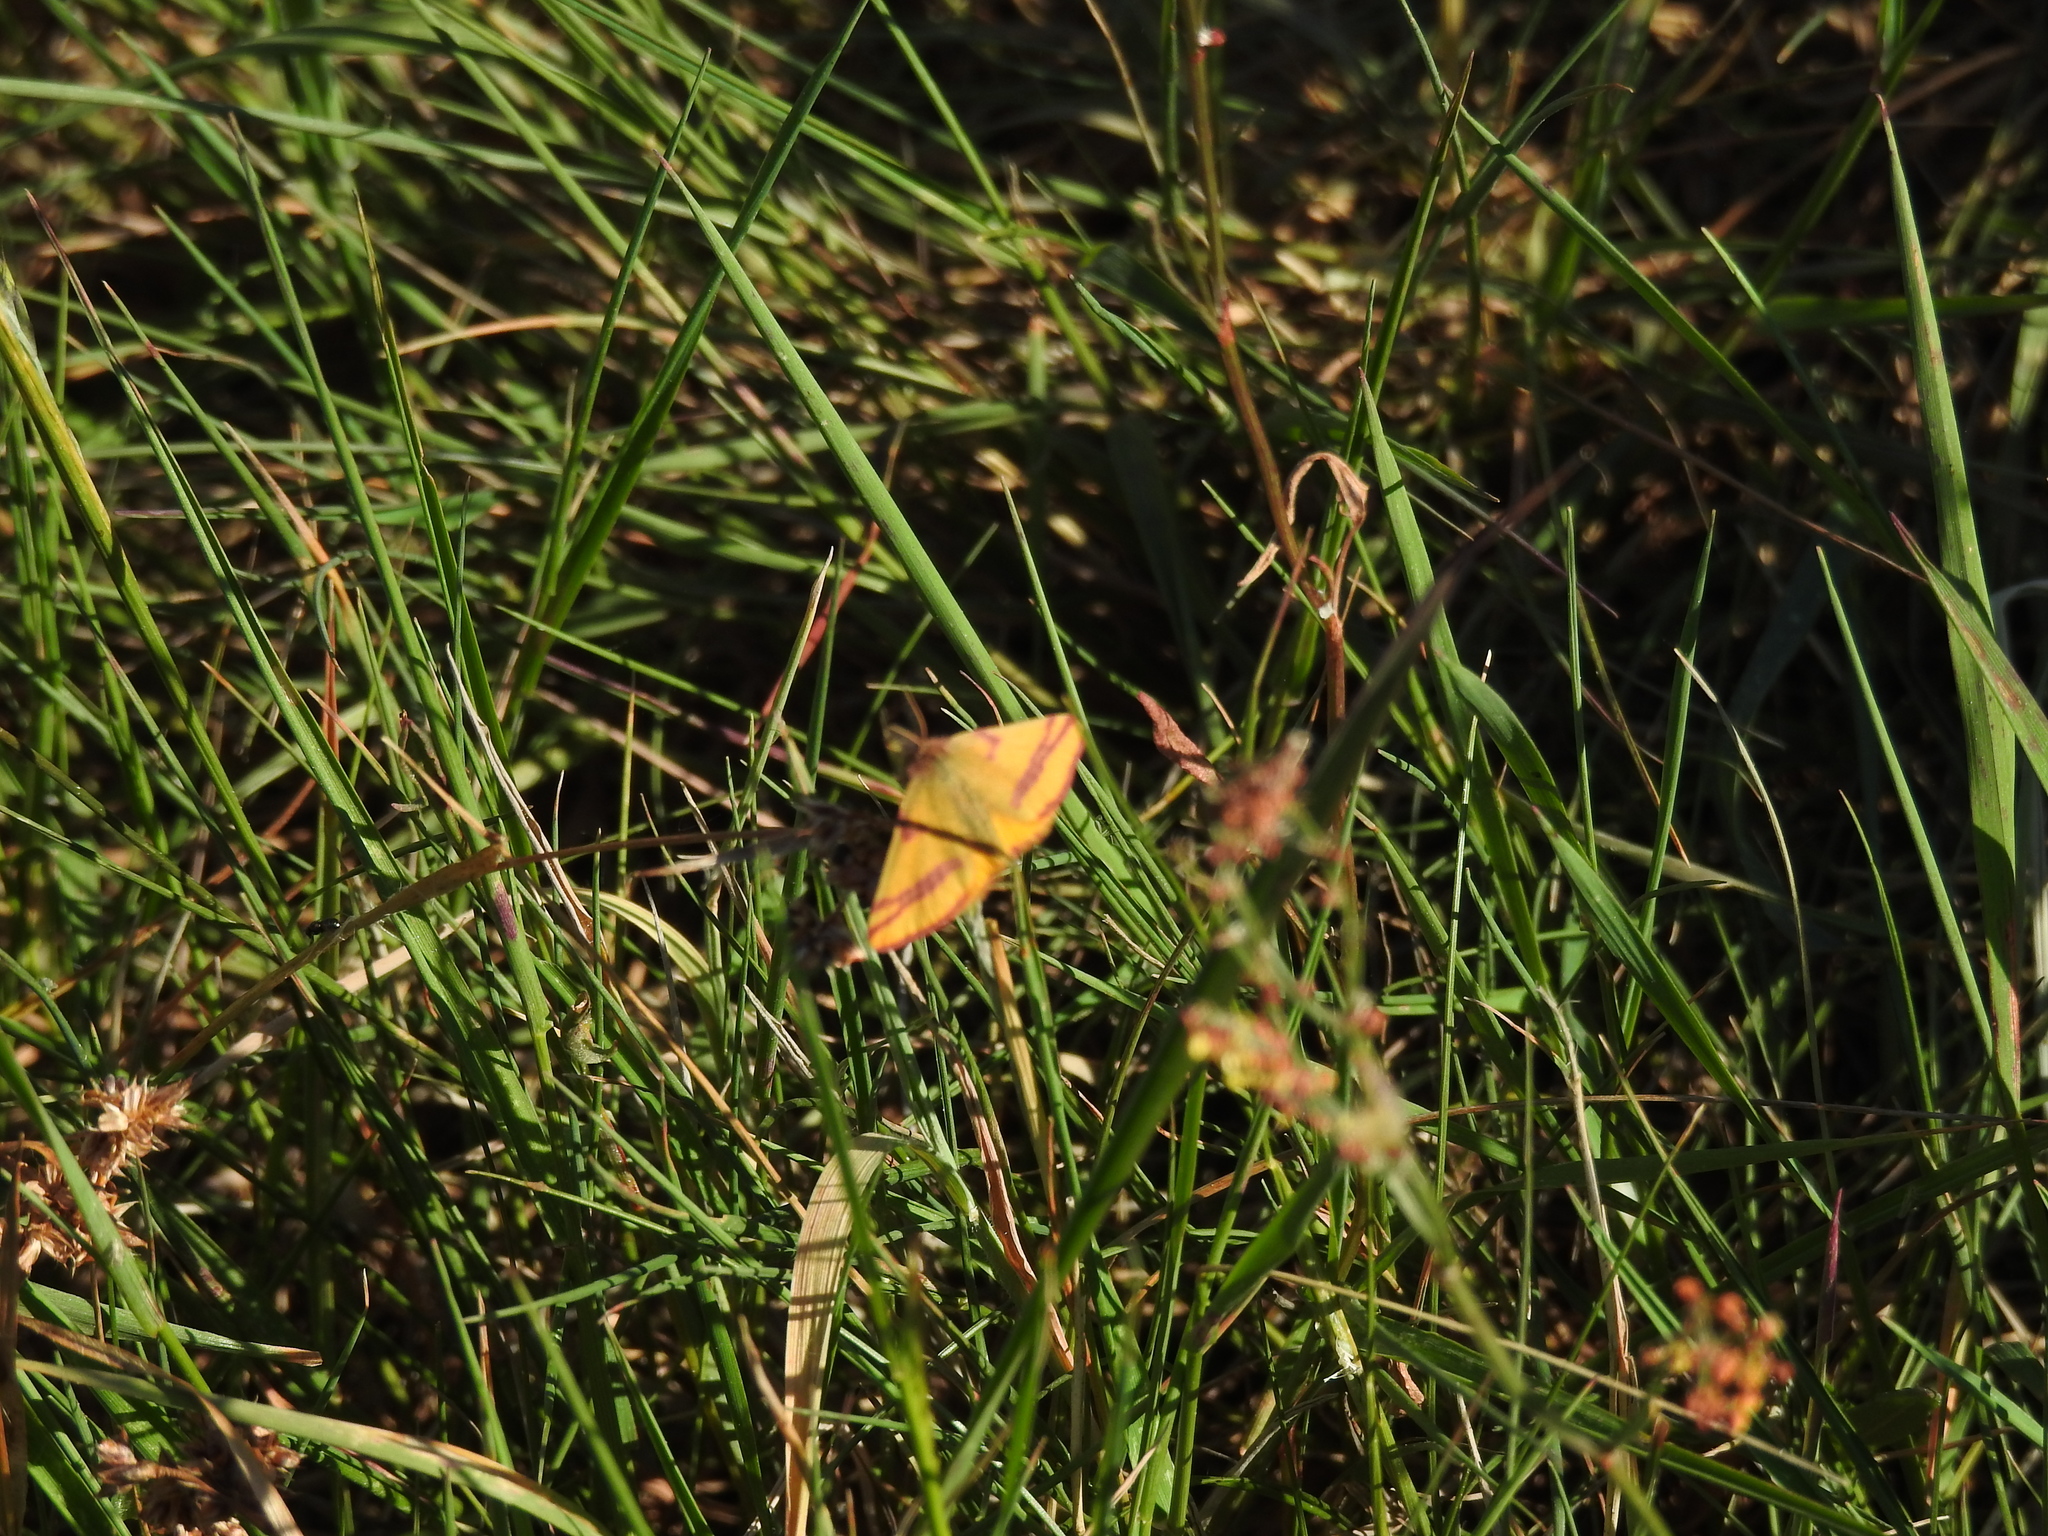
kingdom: Animalia
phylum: Arthropoda
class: Insecta
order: Lepidoptera
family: Geometridae
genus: Lythria
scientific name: Lythria cruentaria
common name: Purple-barred yellow
